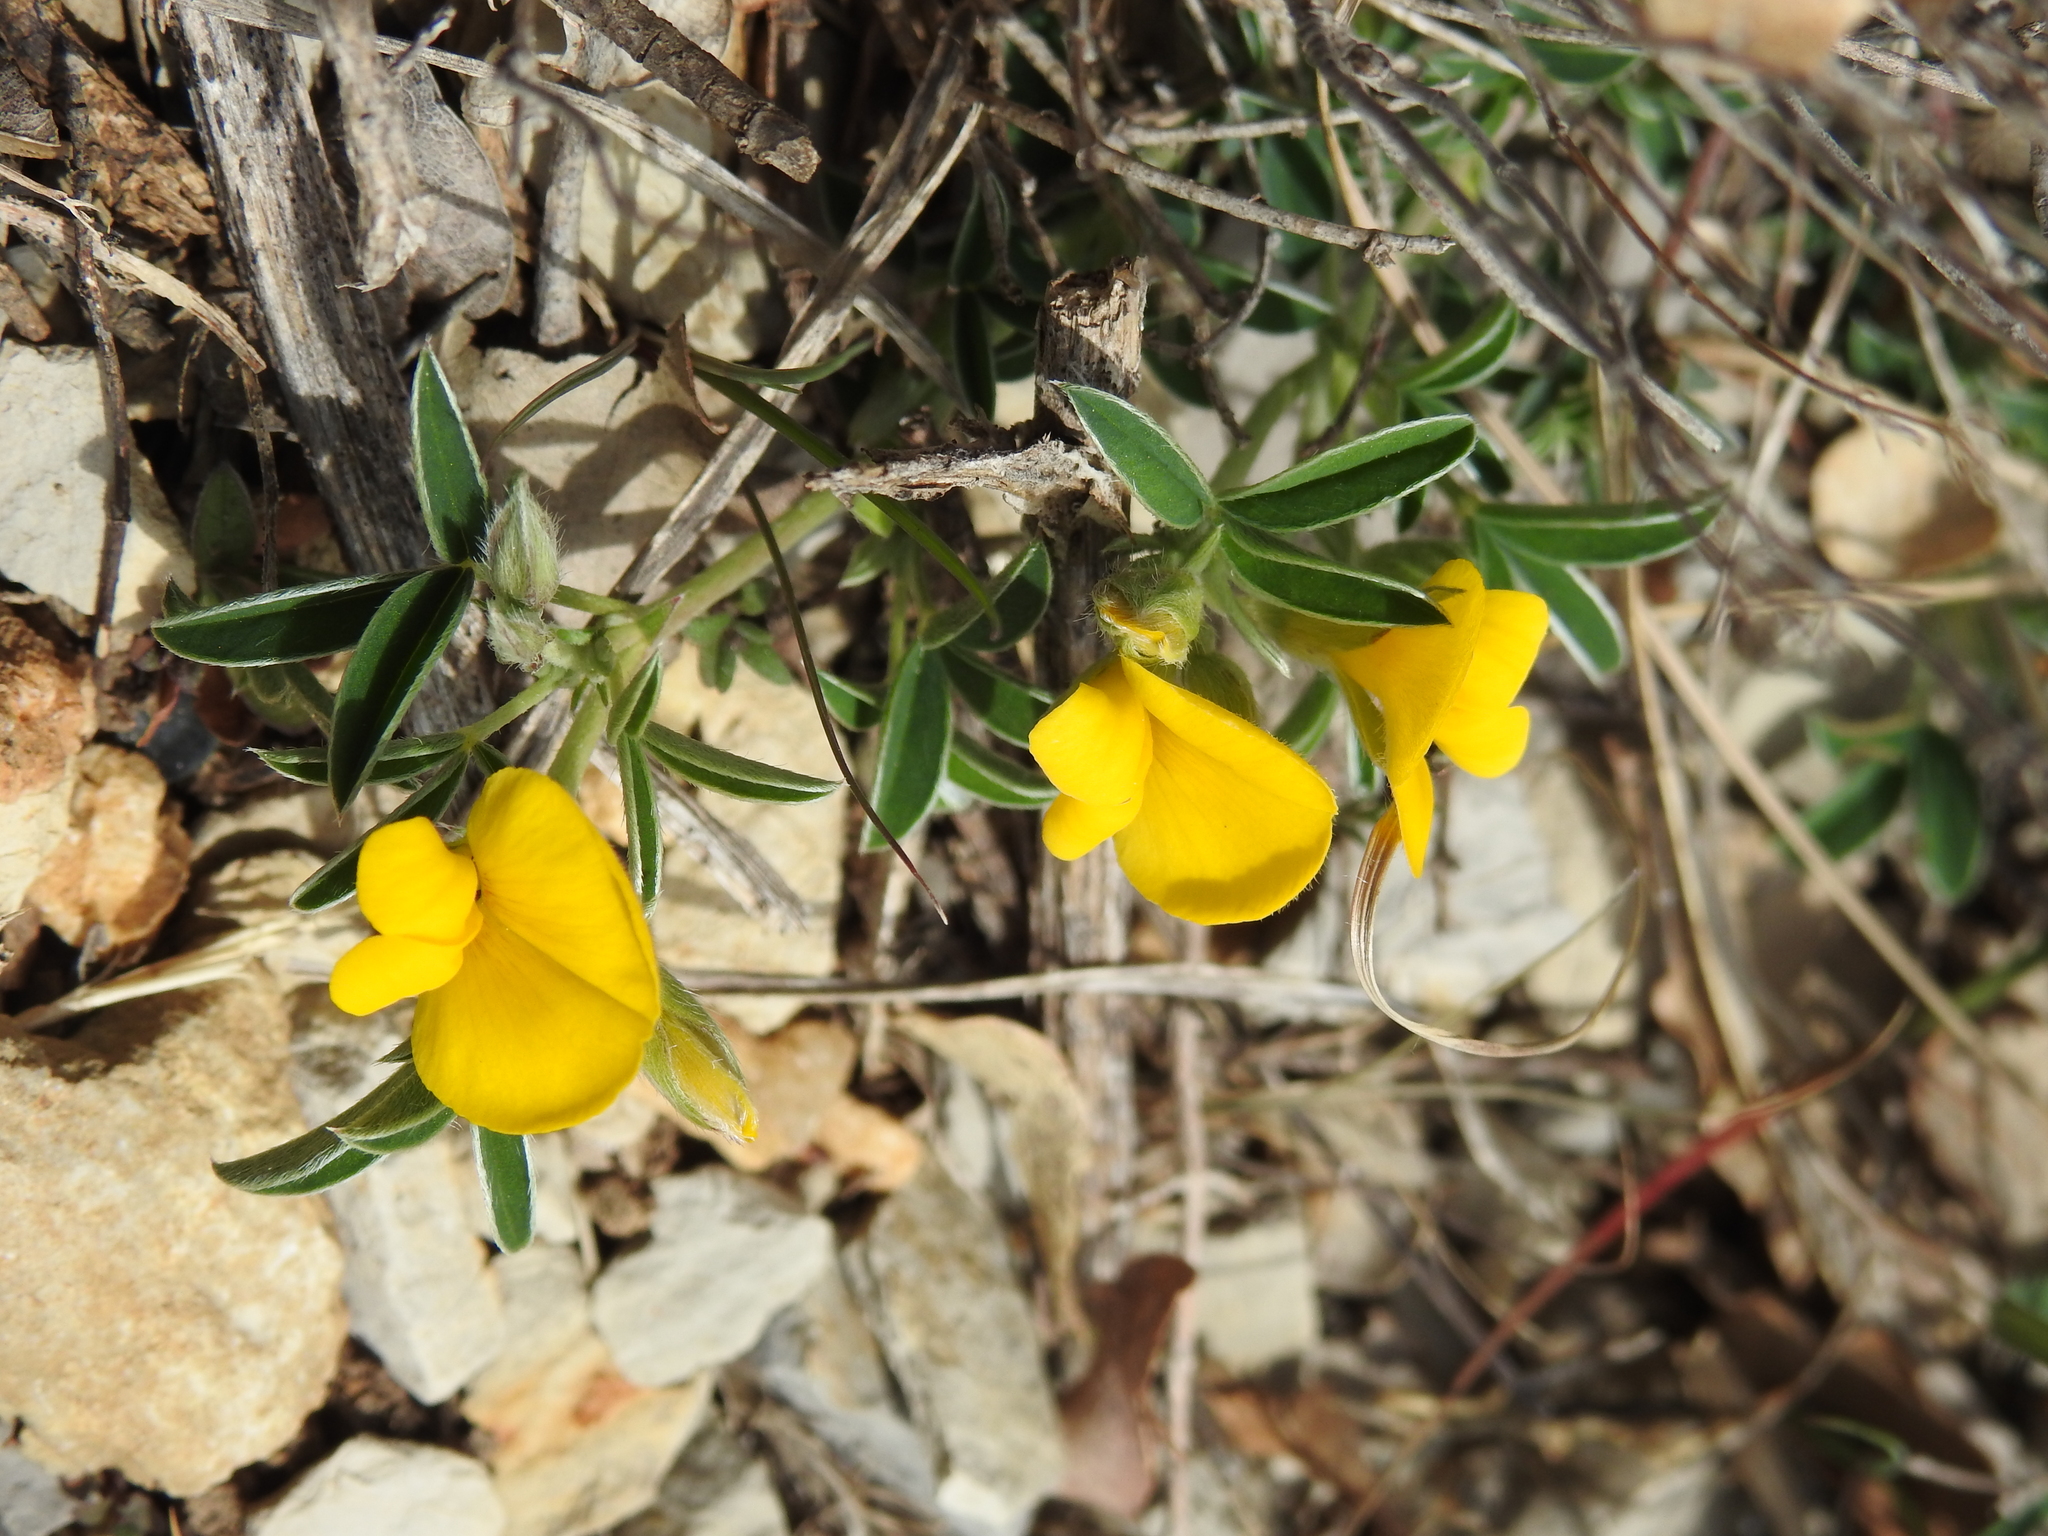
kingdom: Plantae
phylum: Tracheophyta
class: Magnoliopsida
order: Fabales
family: Fabaceae
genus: Argyrolobium
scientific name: Argyrolobium zanonii
